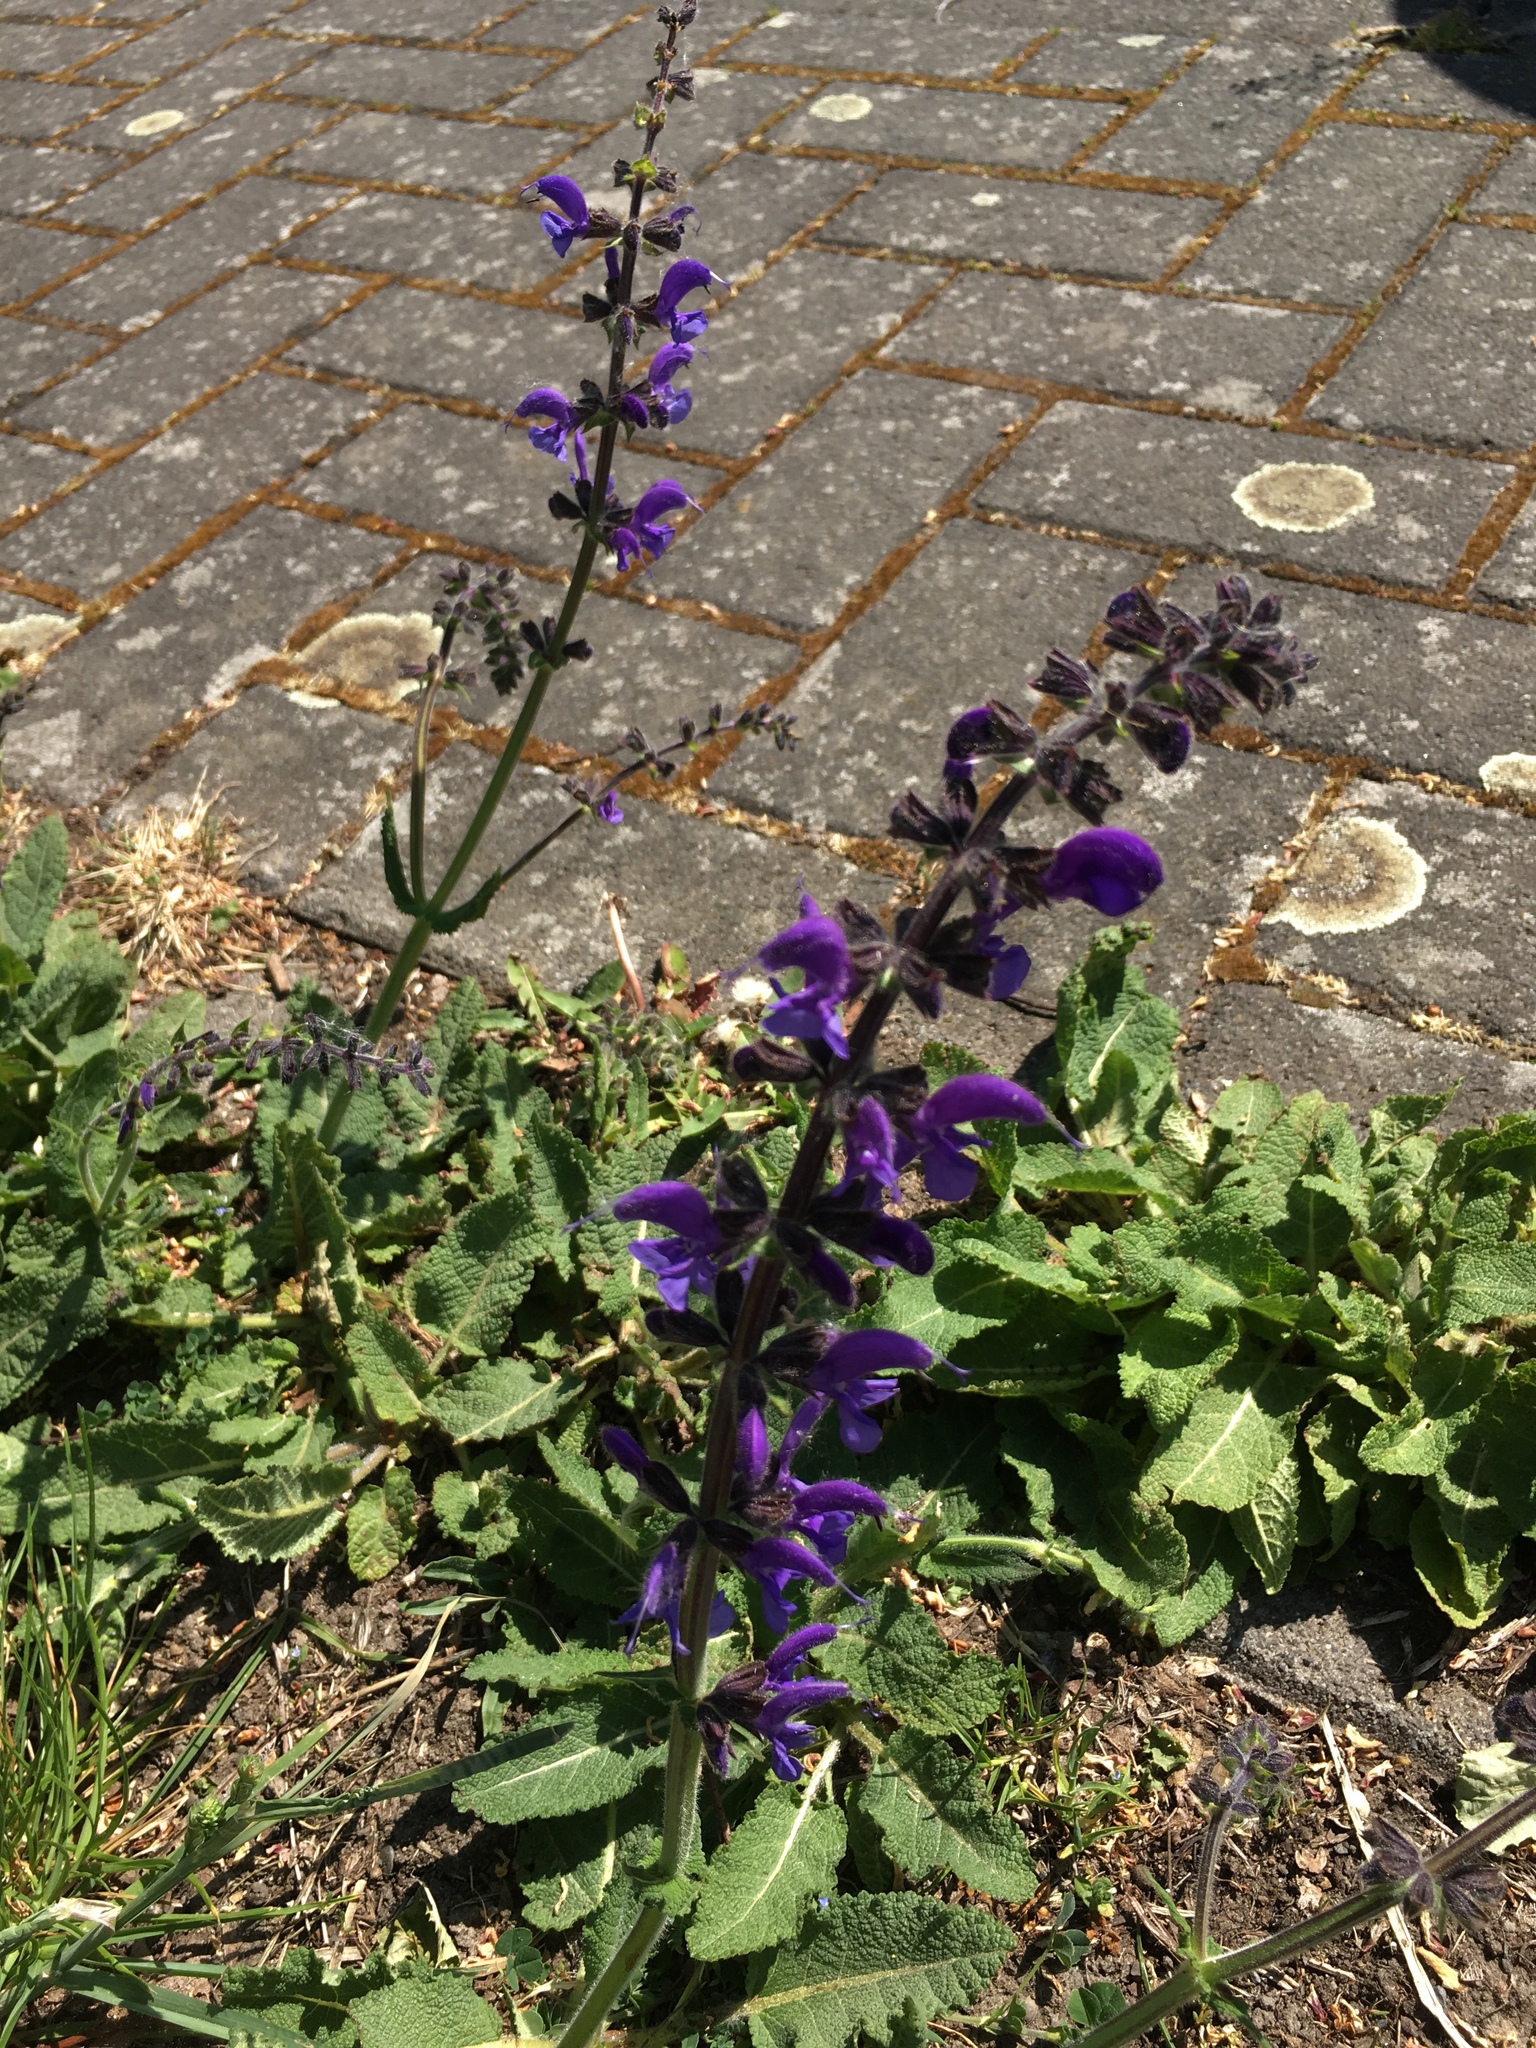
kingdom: Plantae
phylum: Tracheophyta
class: Magnoliopsida
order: Lamiales
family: Lamiaceae
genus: Salvia
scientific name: Salvia pratensis
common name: Meadow sage
